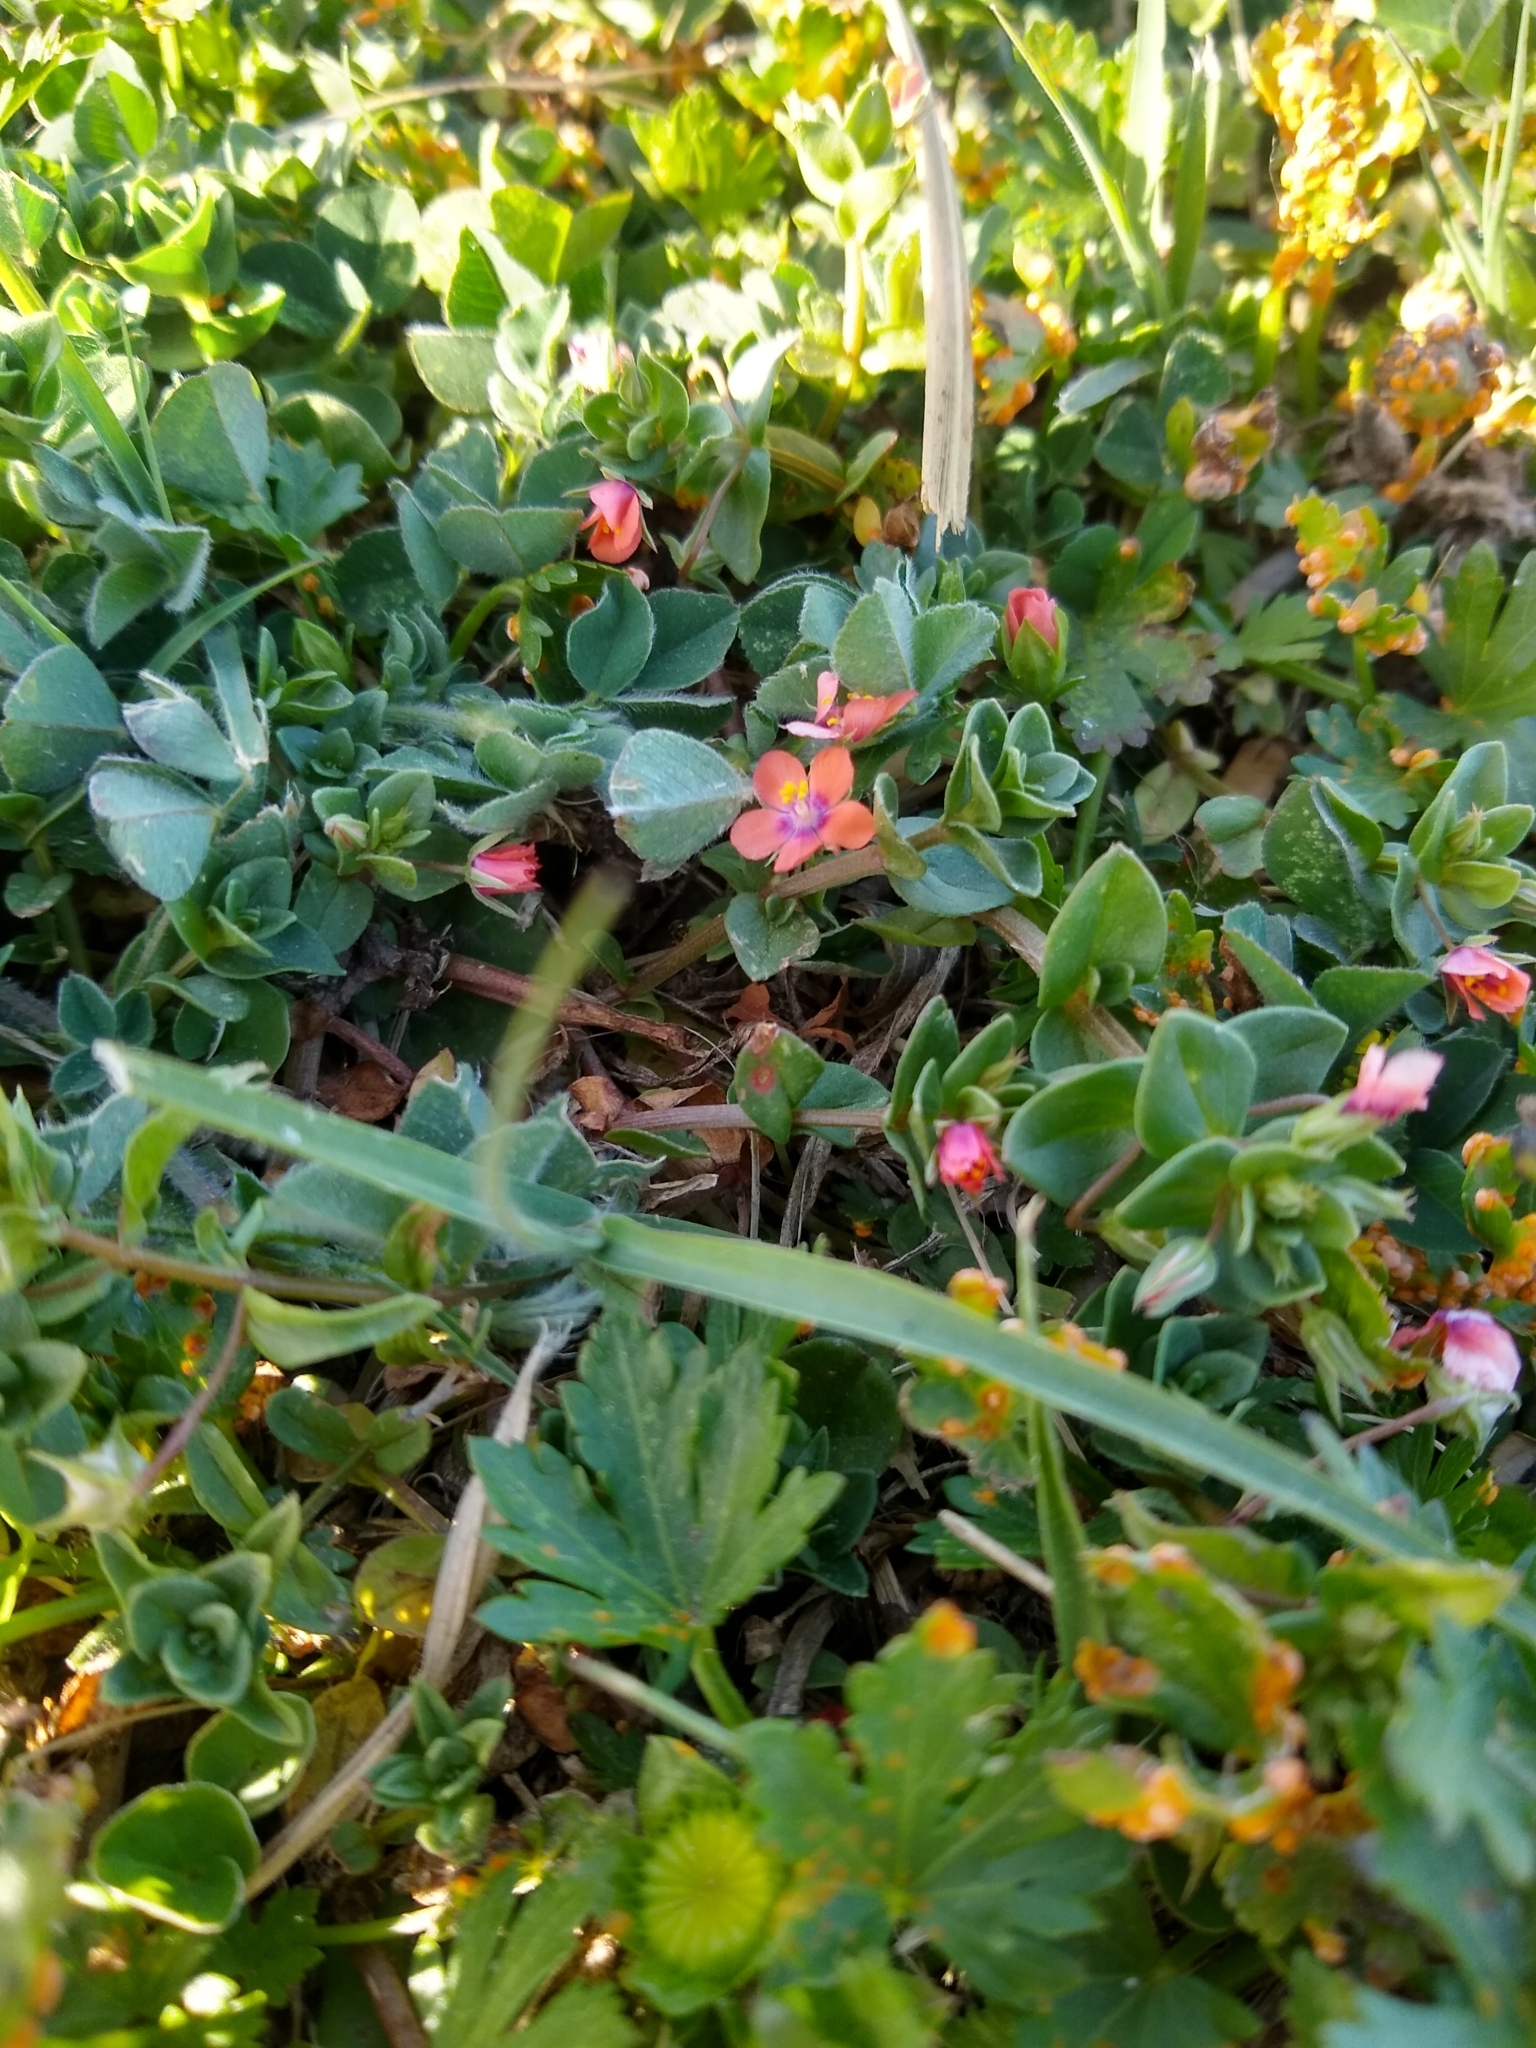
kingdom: Plantae
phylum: Tracheophyta
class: Magnoliopsida
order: Ericales
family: Primulaceae
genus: Lysimachia
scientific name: Lysimachia arvensis
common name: Scarlet pimpernel
